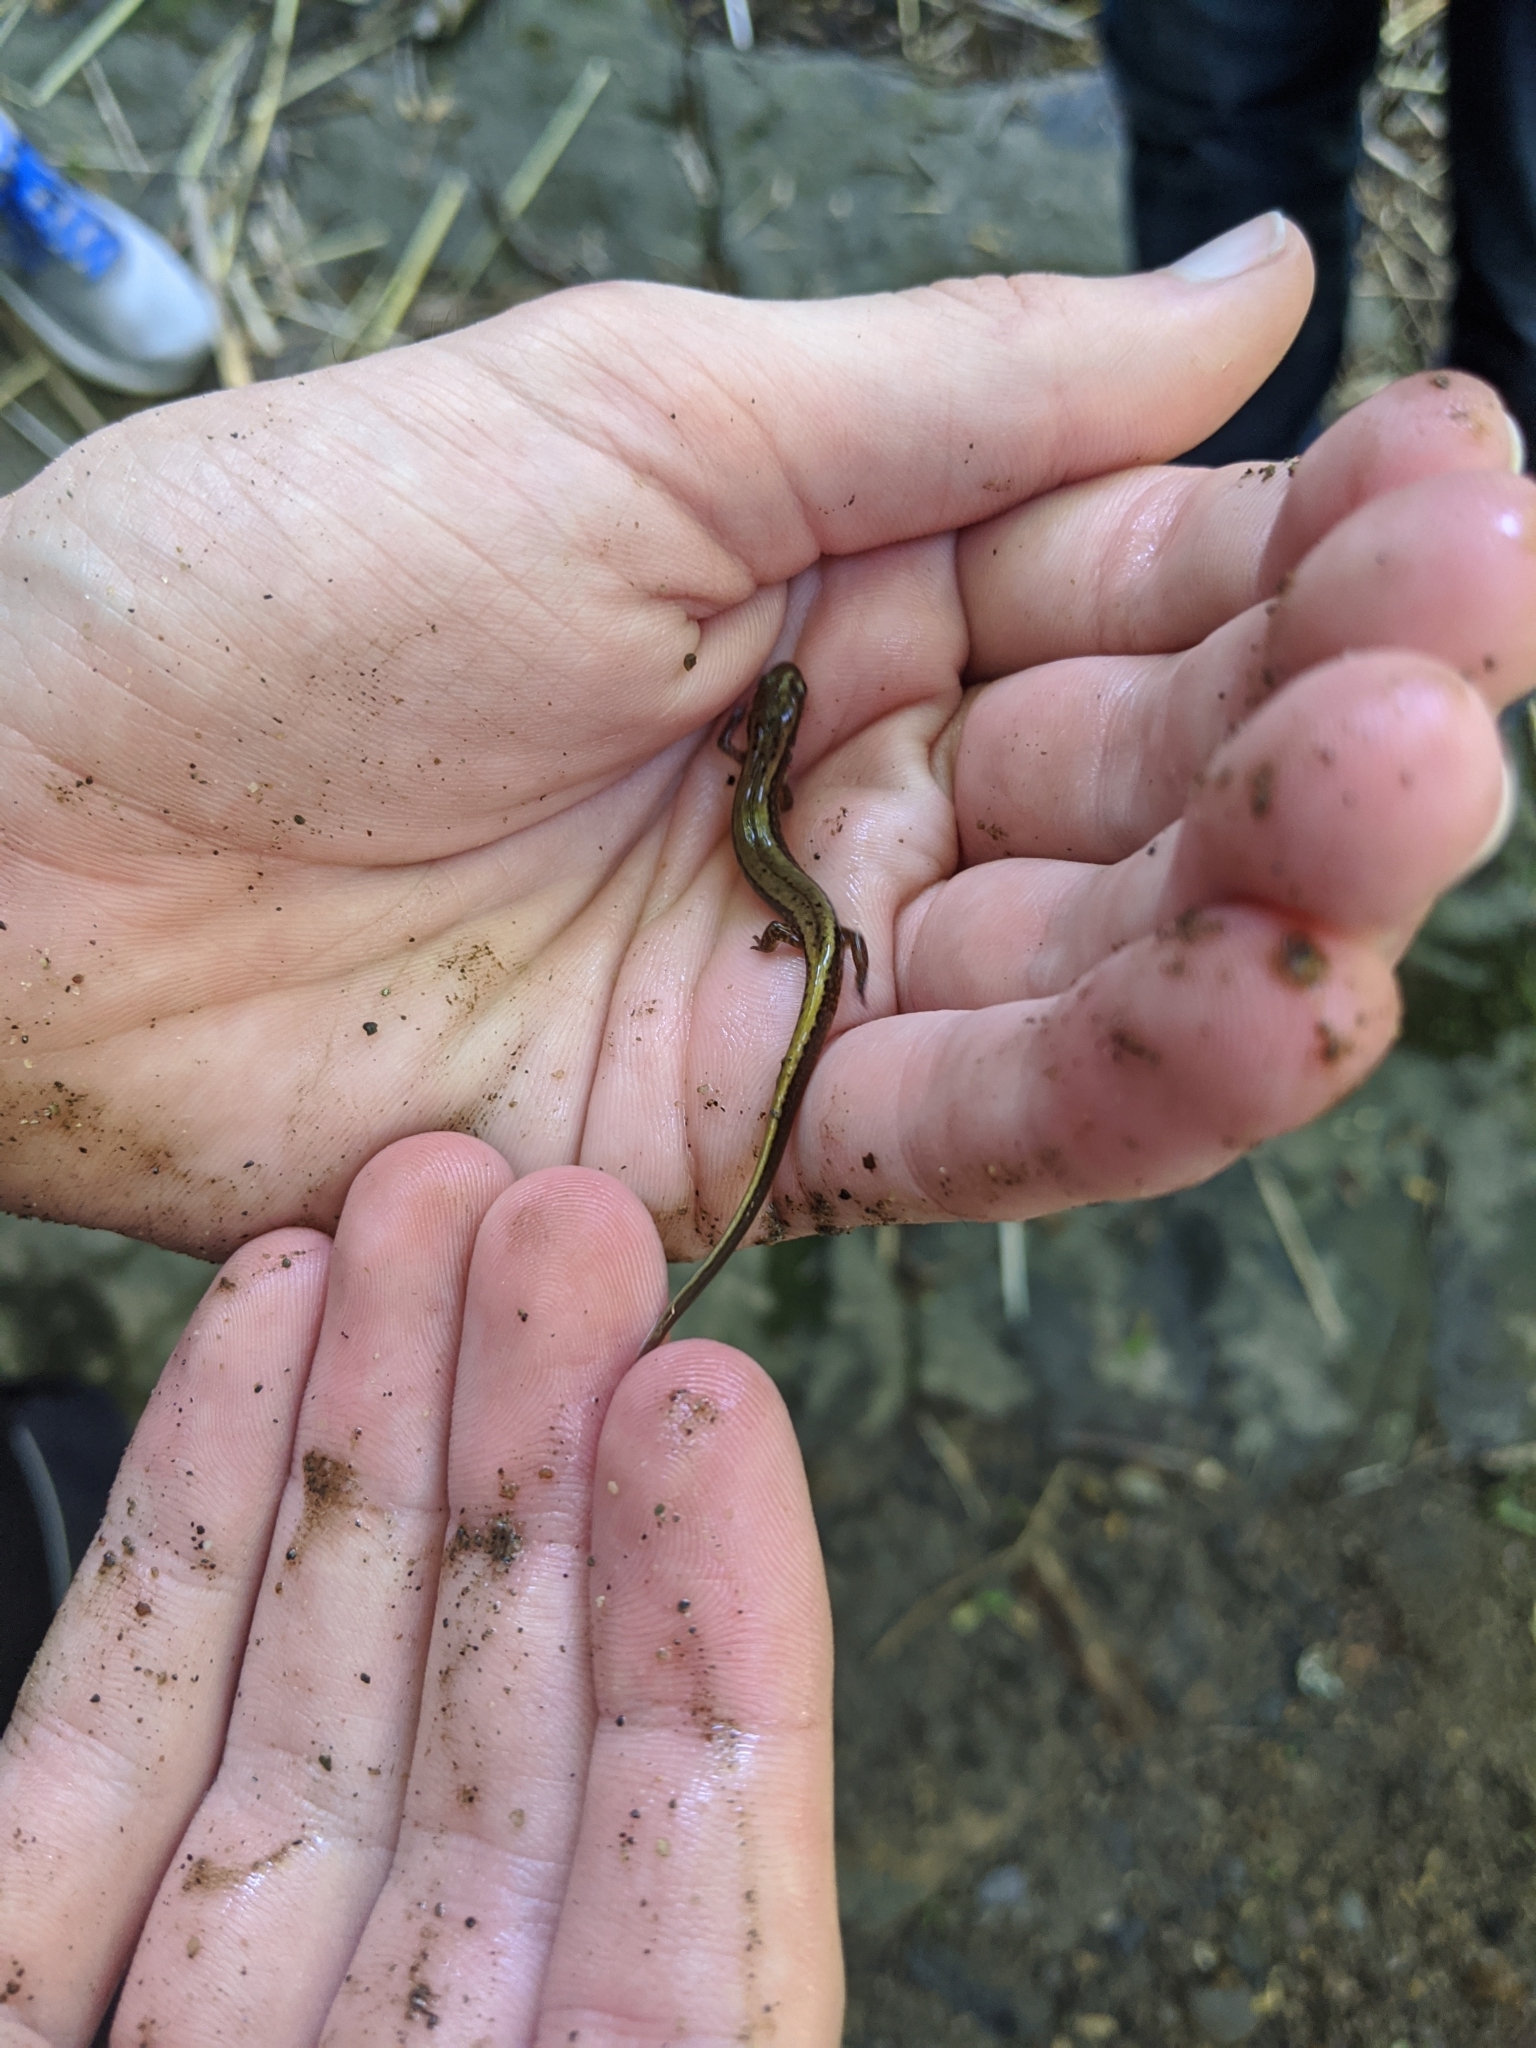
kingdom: Animalia
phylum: Chordata
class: Amphibia
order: Caudata
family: Plethodontidae
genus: Eurycea
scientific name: Eurycea bislineata
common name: Northern two-lined salamander
